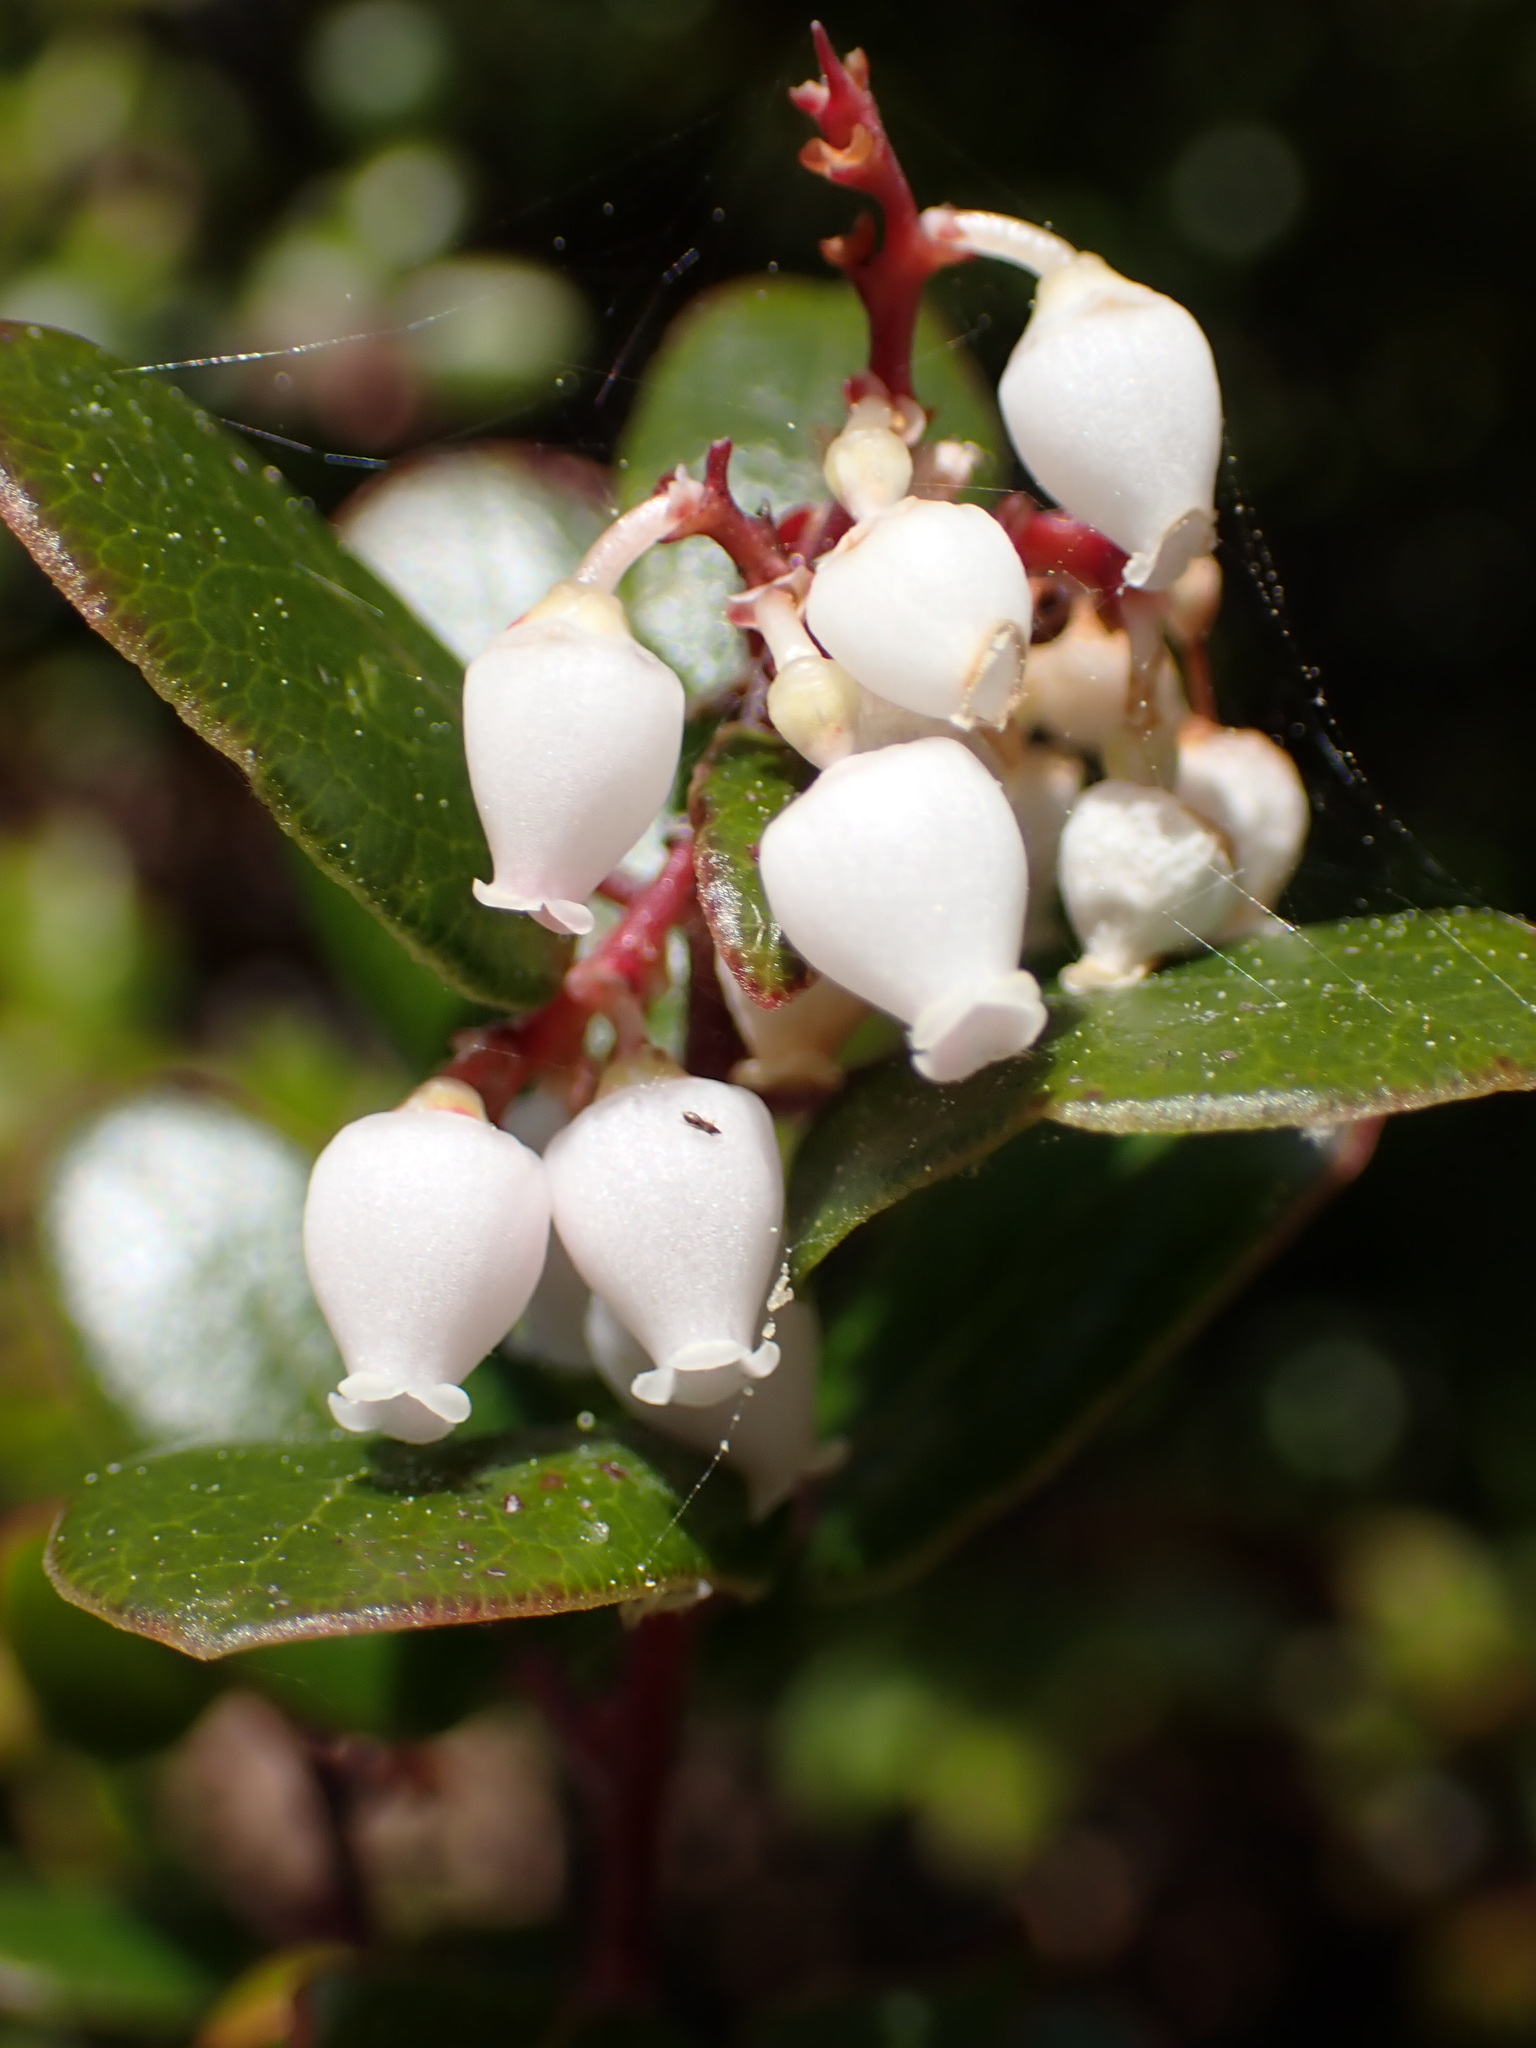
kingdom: Plantae
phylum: Tracheophyta
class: Magnoliopsida
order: Ericales
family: Ericaceae
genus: Arctostaphylos
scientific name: Arctostaphylos nummularia
